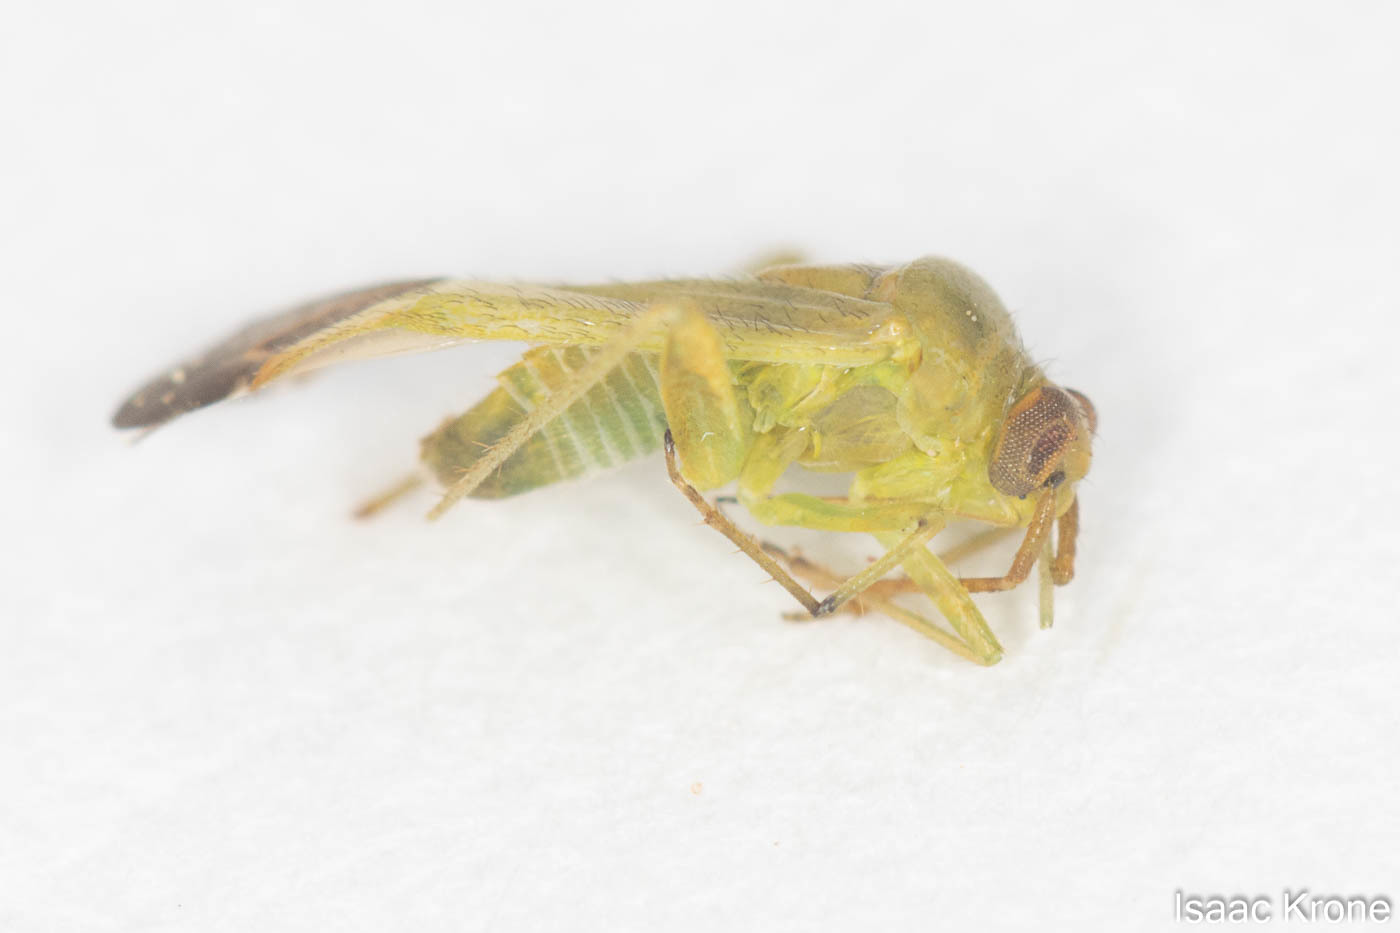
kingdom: Animalia
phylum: Arthropoda
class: Insecta
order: Hemiptera
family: Miridae
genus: Phytocoris
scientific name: Phytocoris vanduzeei
